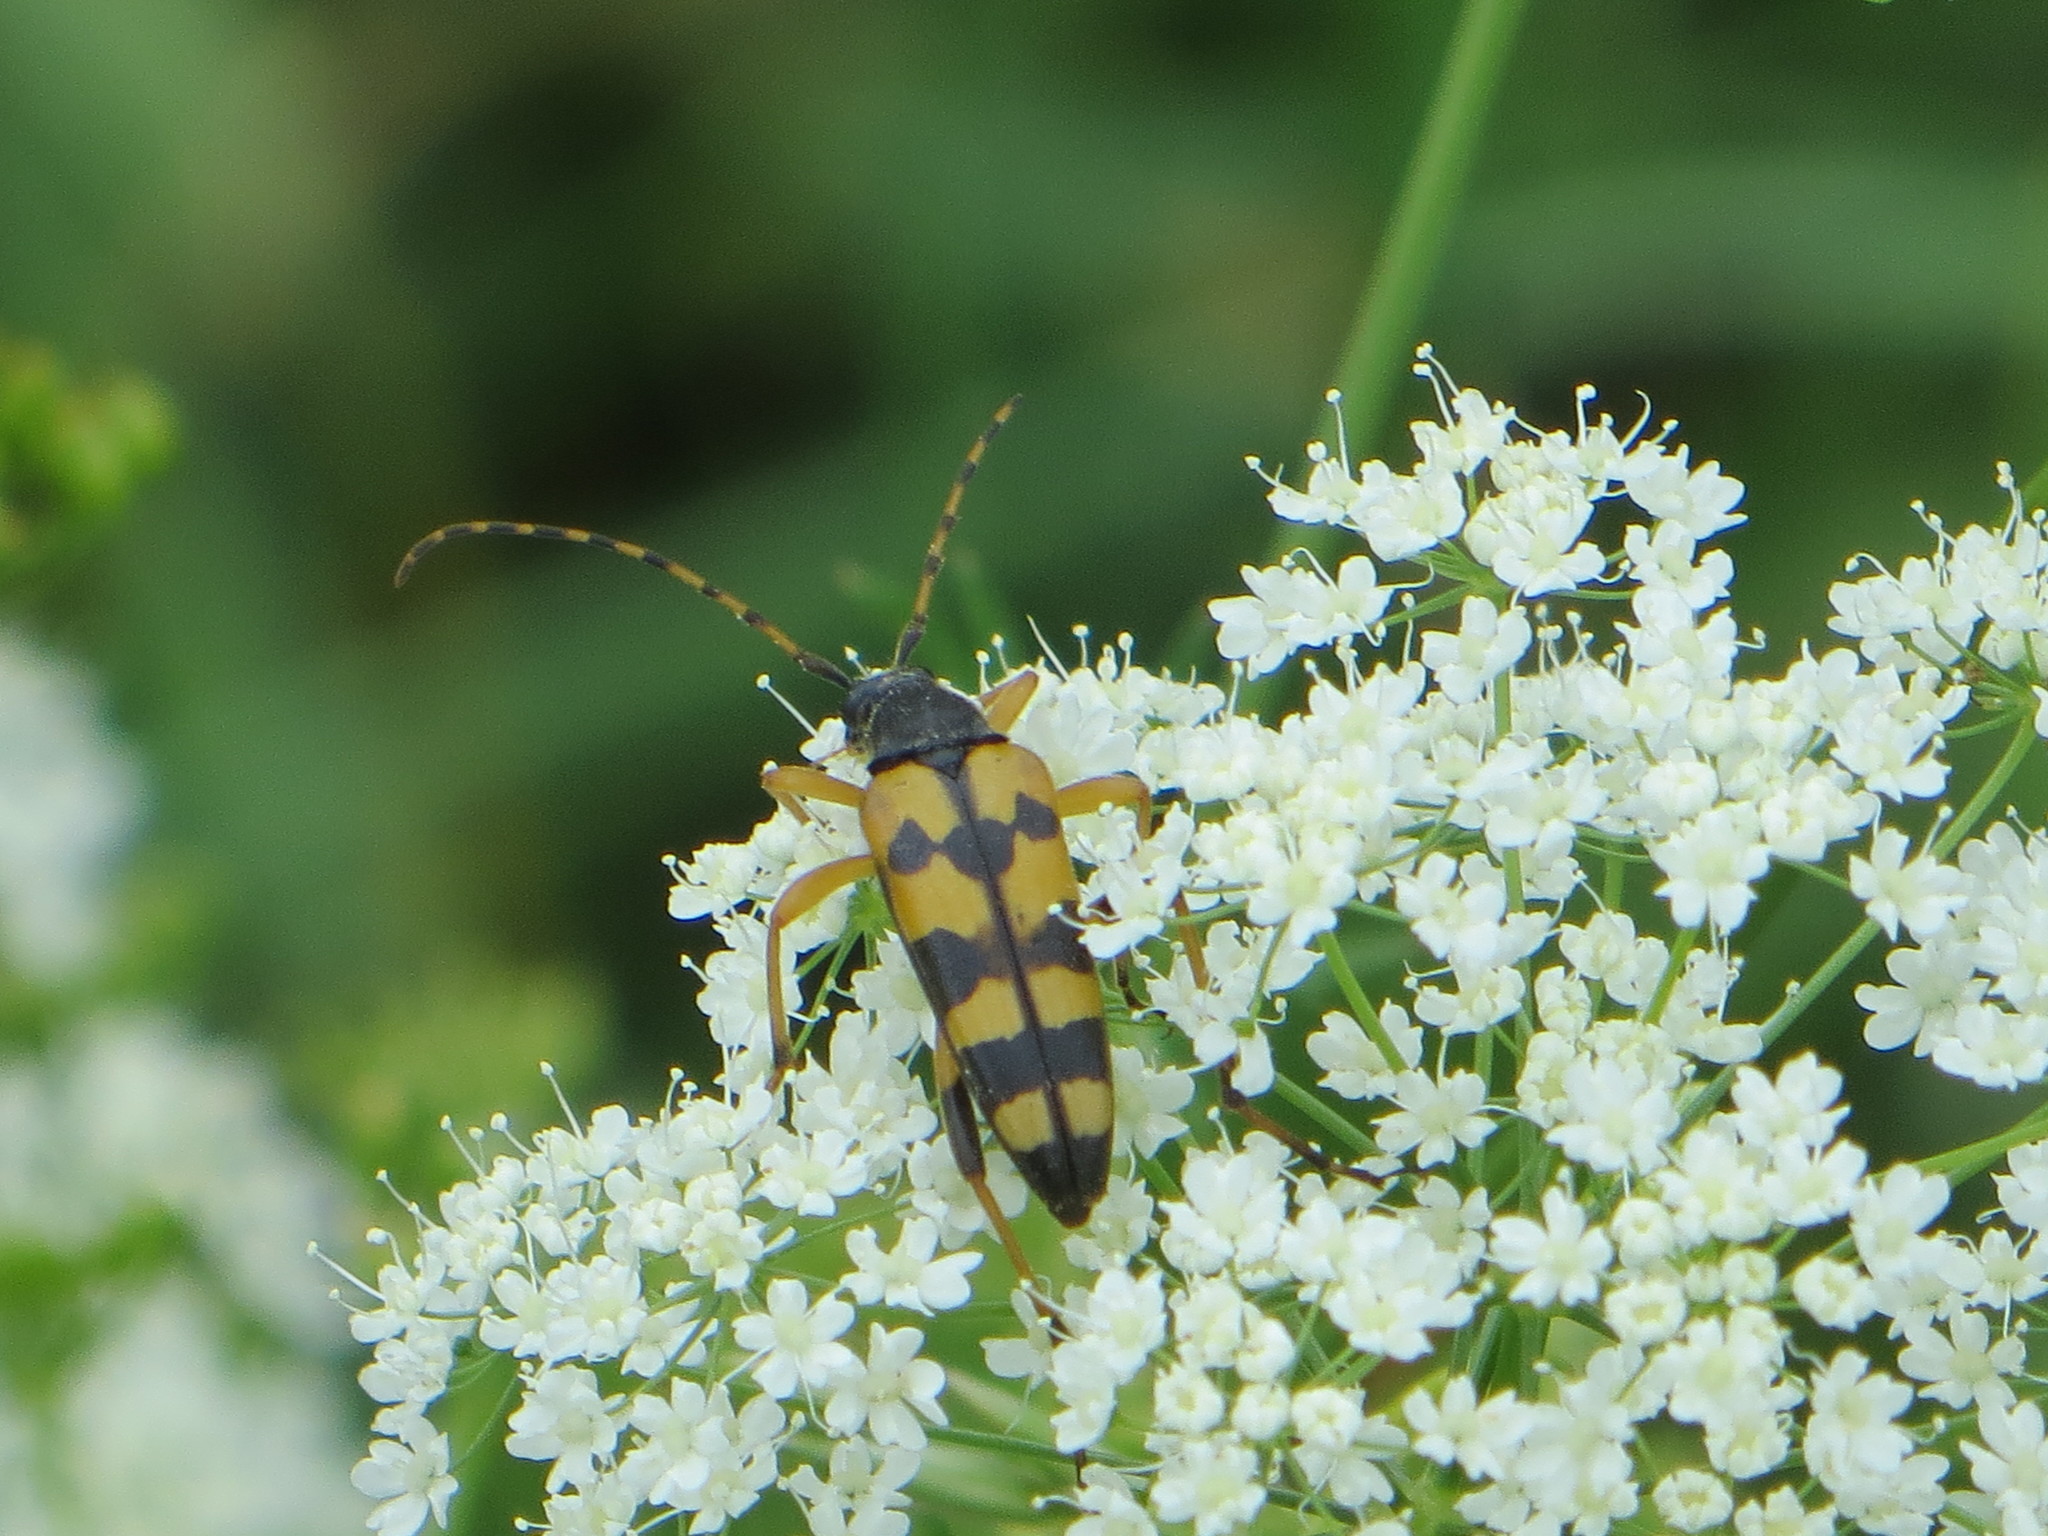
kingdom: Animalia
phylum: Arthropoda
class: Insecta
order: Coleoptera
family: Cerambycidae
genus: Rutpela
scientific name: Rutpela maculata
